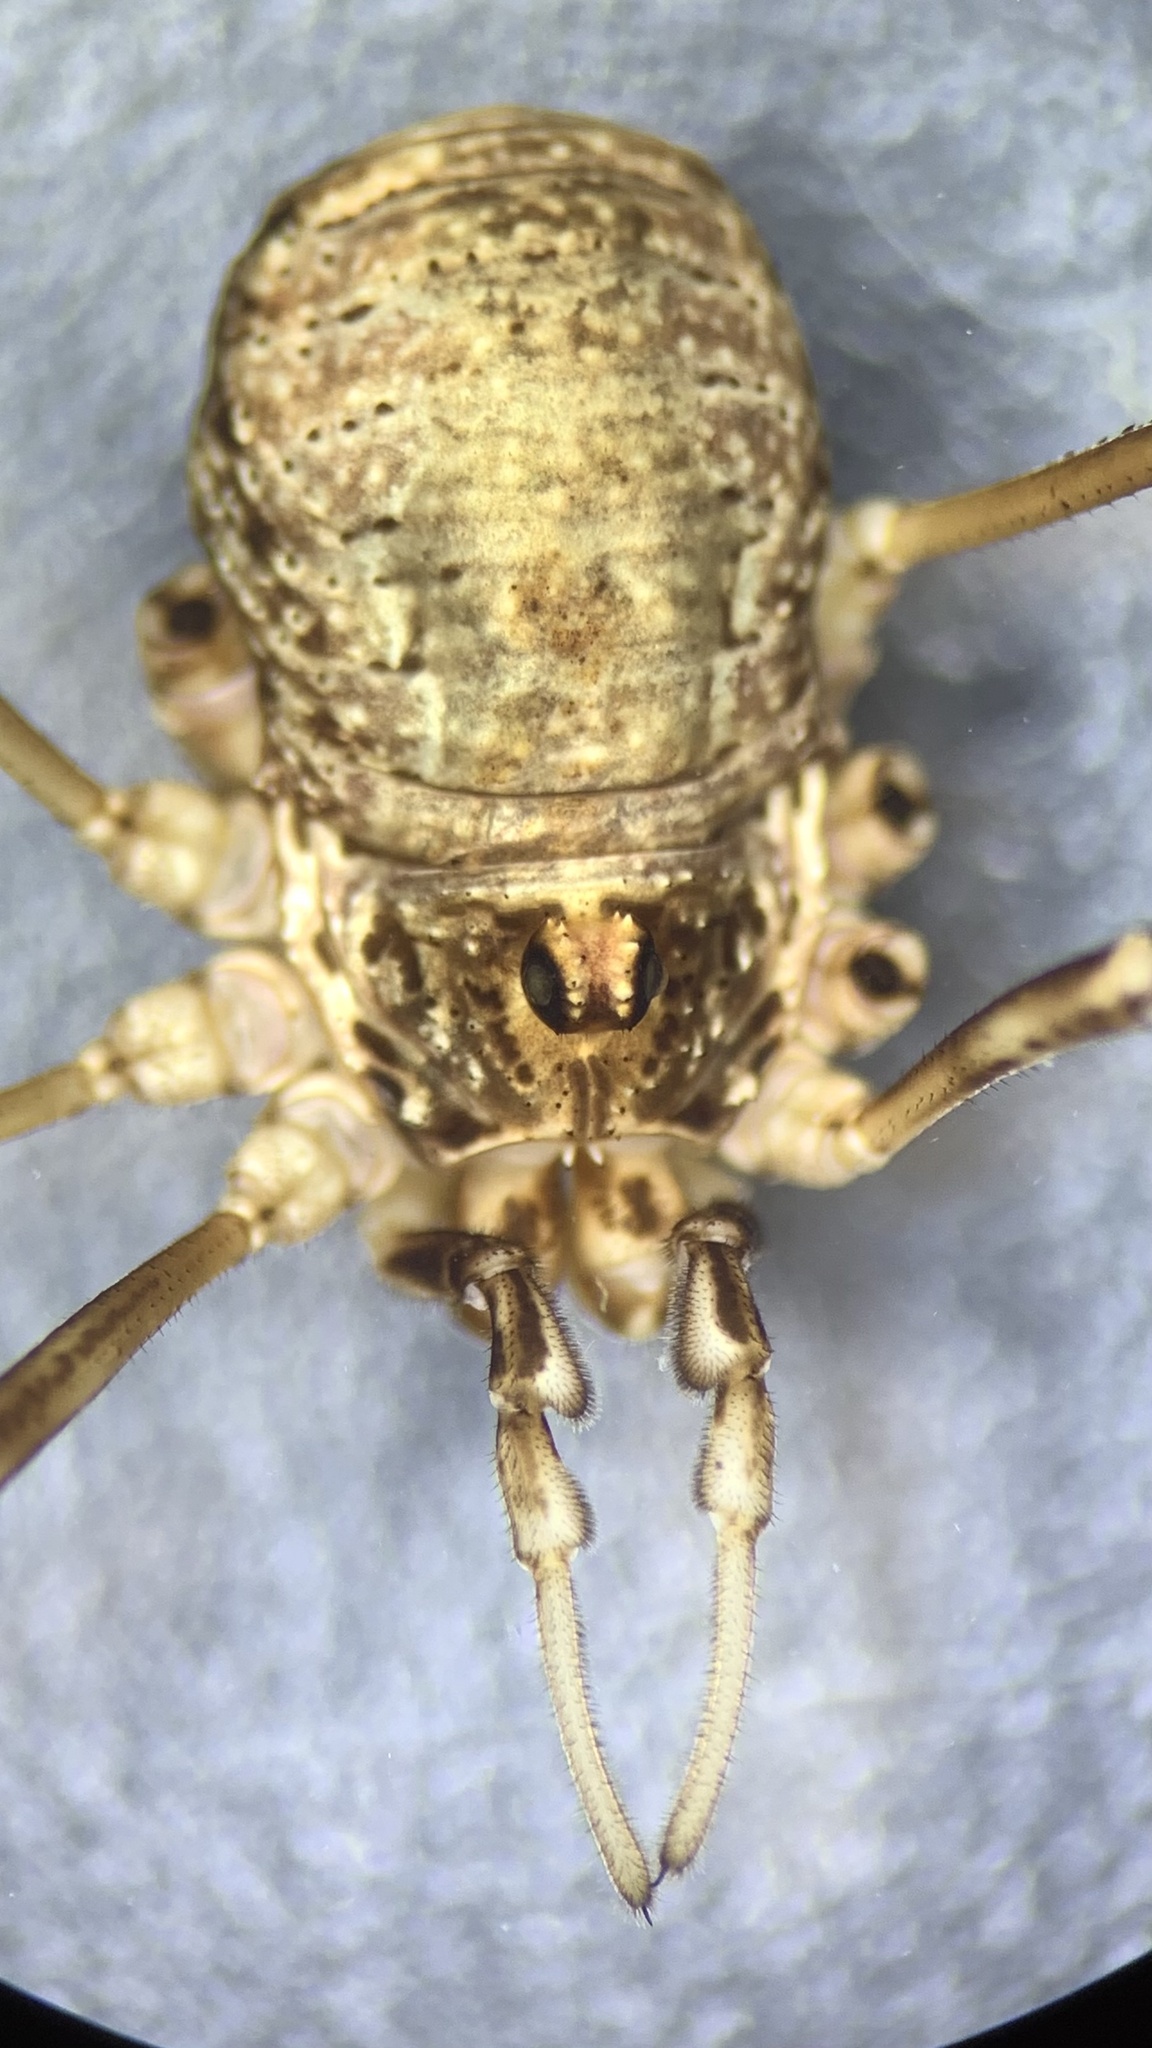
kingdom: Animalia
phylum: Arthropoda
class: Arachnida
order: Opiliones
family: Phalangiidae
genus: Dasylobus
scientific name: Dasylobus graniferus
